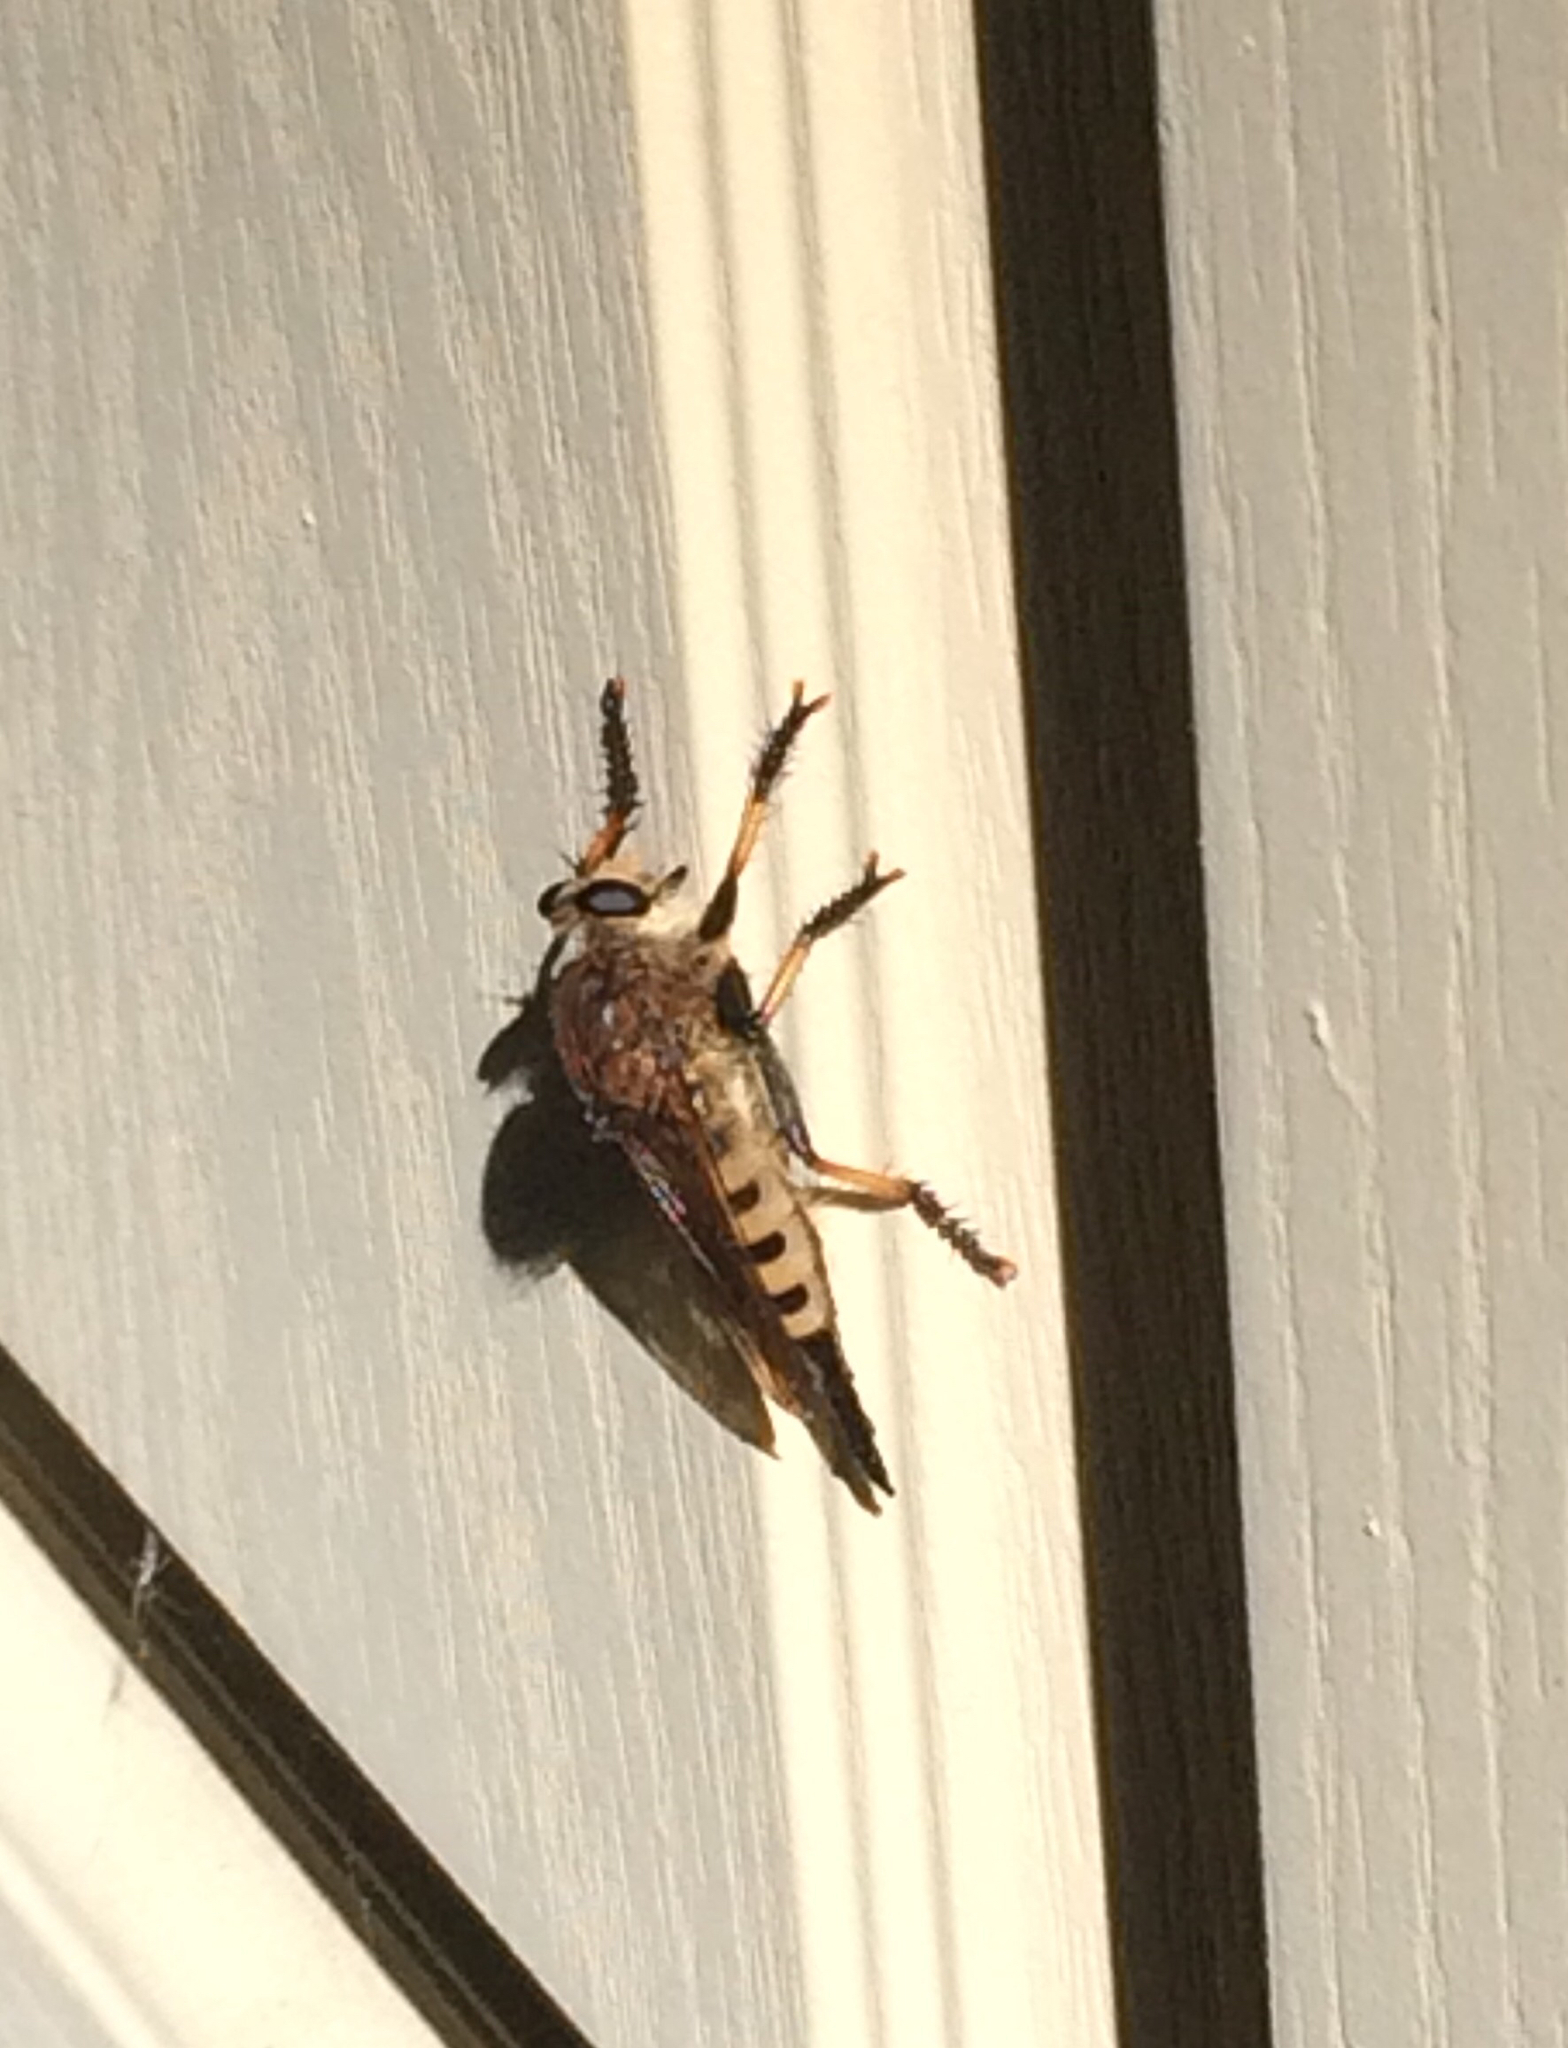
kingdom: Animalia
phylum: Arthropoda
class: Insecta
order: Diptera
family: Asilidae
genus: Promachus
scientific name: Promachus rufipes
